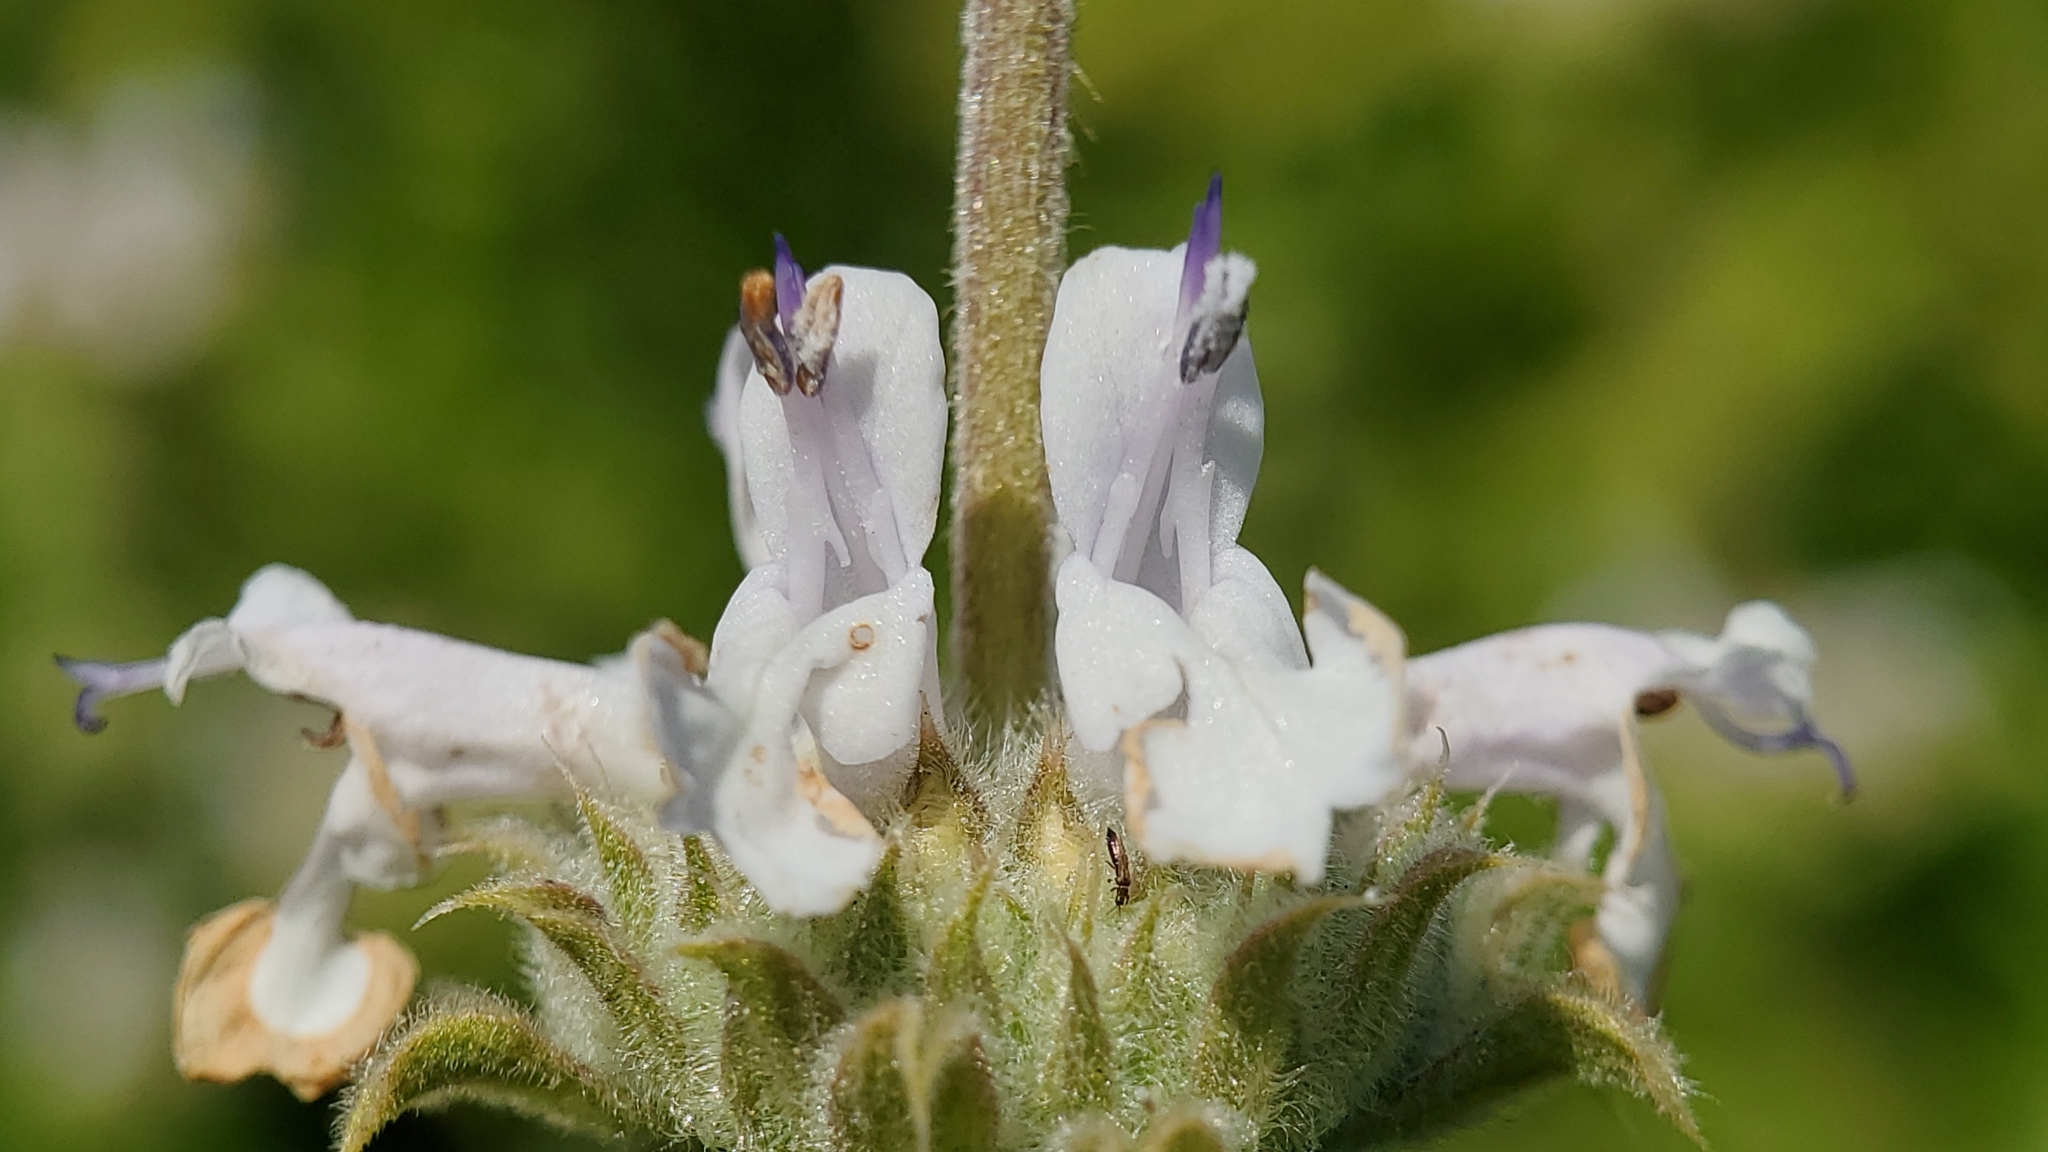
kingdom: Plantae
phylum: Tracheophyta
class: Magnoliopsida
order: Lamiales
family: Lamiaceae
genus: Salvia
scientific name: Salvia mellifera
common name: Black sage
